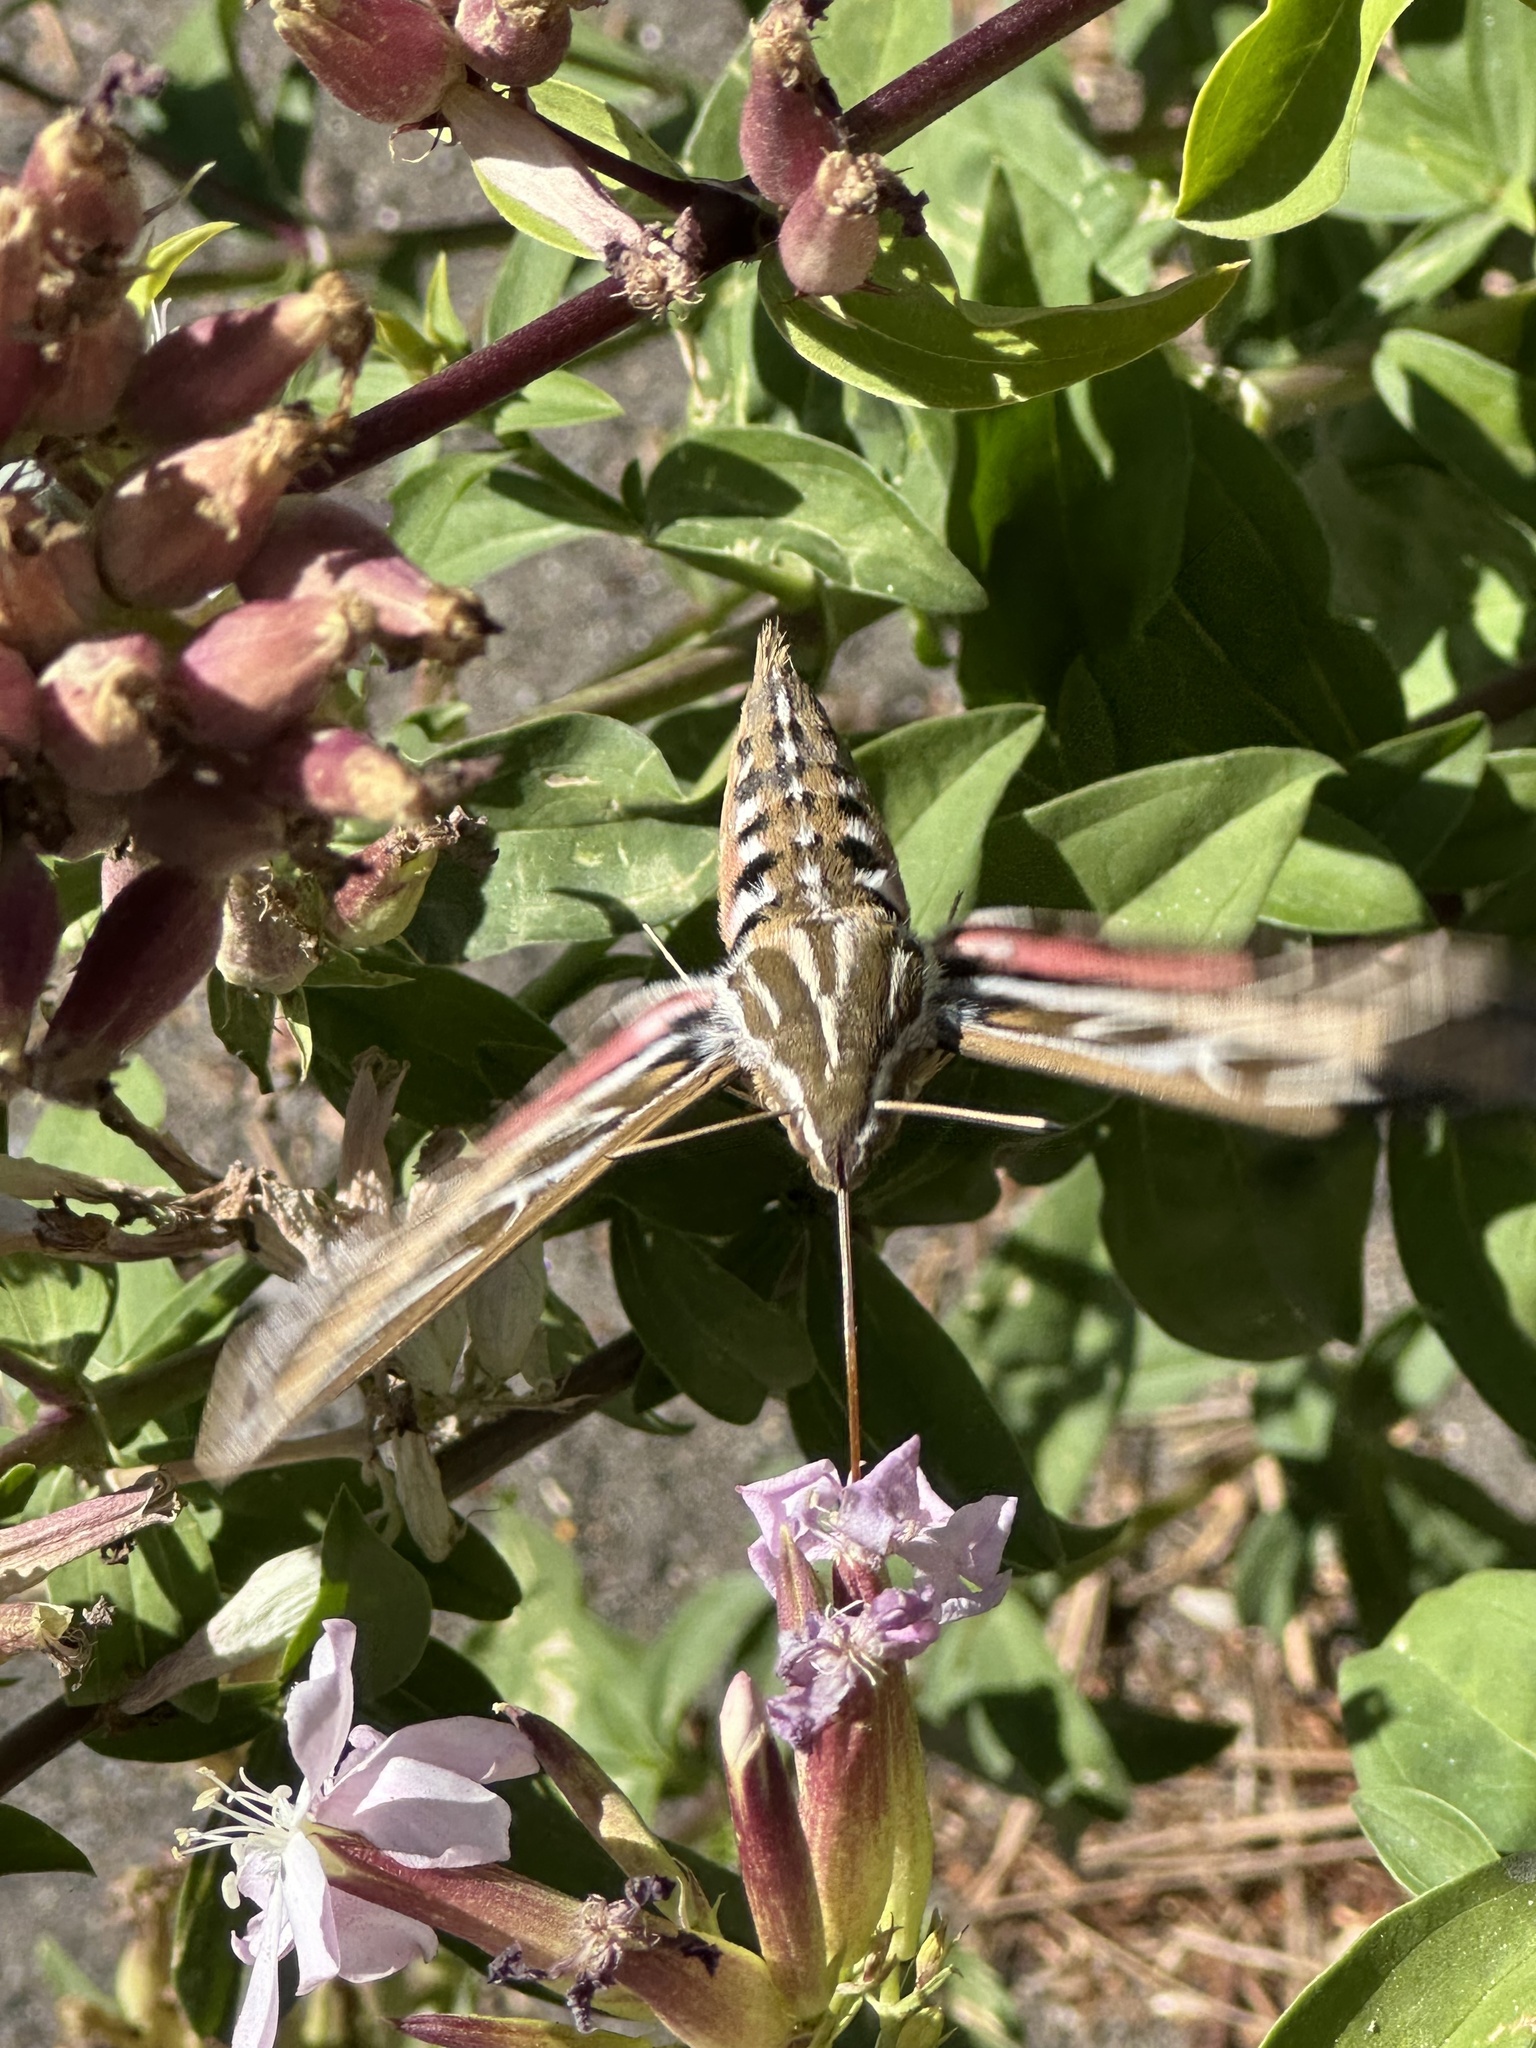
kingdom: Animalia
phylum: Arthropoda
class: Insecta
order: Lepidoptera
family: Sphingidae
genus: Hyles
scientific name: Hyles lineata
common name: White-lined sphinx
